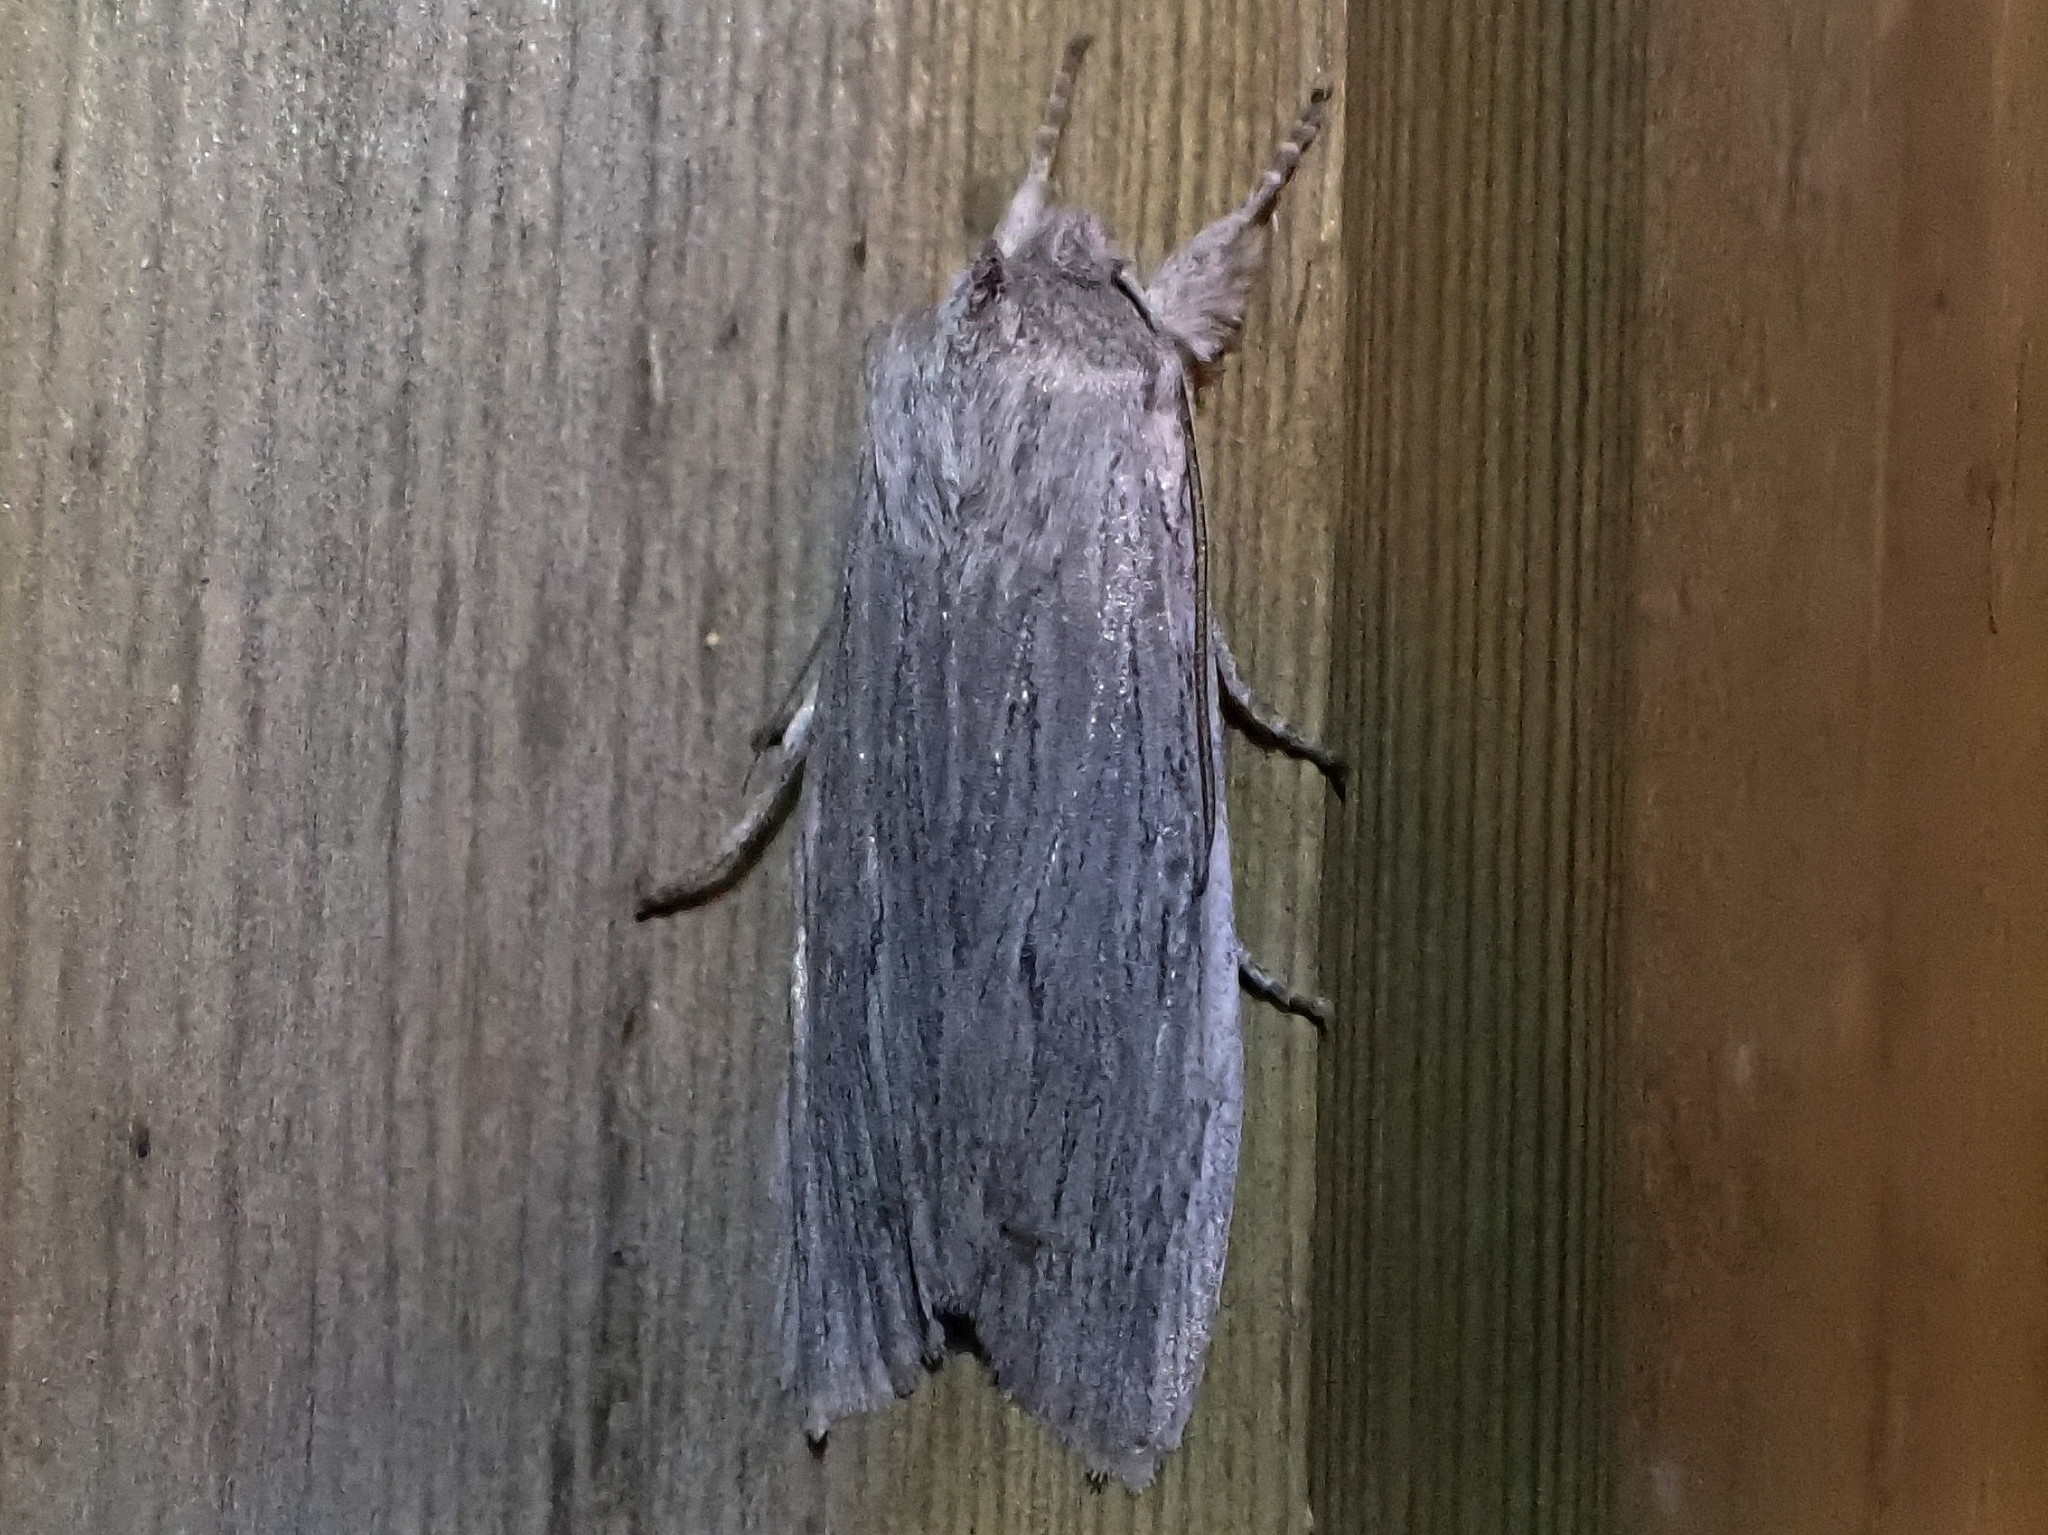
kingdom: Animalia
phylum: Arthropoda
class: Insecta
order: Lepidoptera
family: Noctuidae
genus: Lithophane
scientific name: Lithophane fagina
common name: Hoary pinion moth
